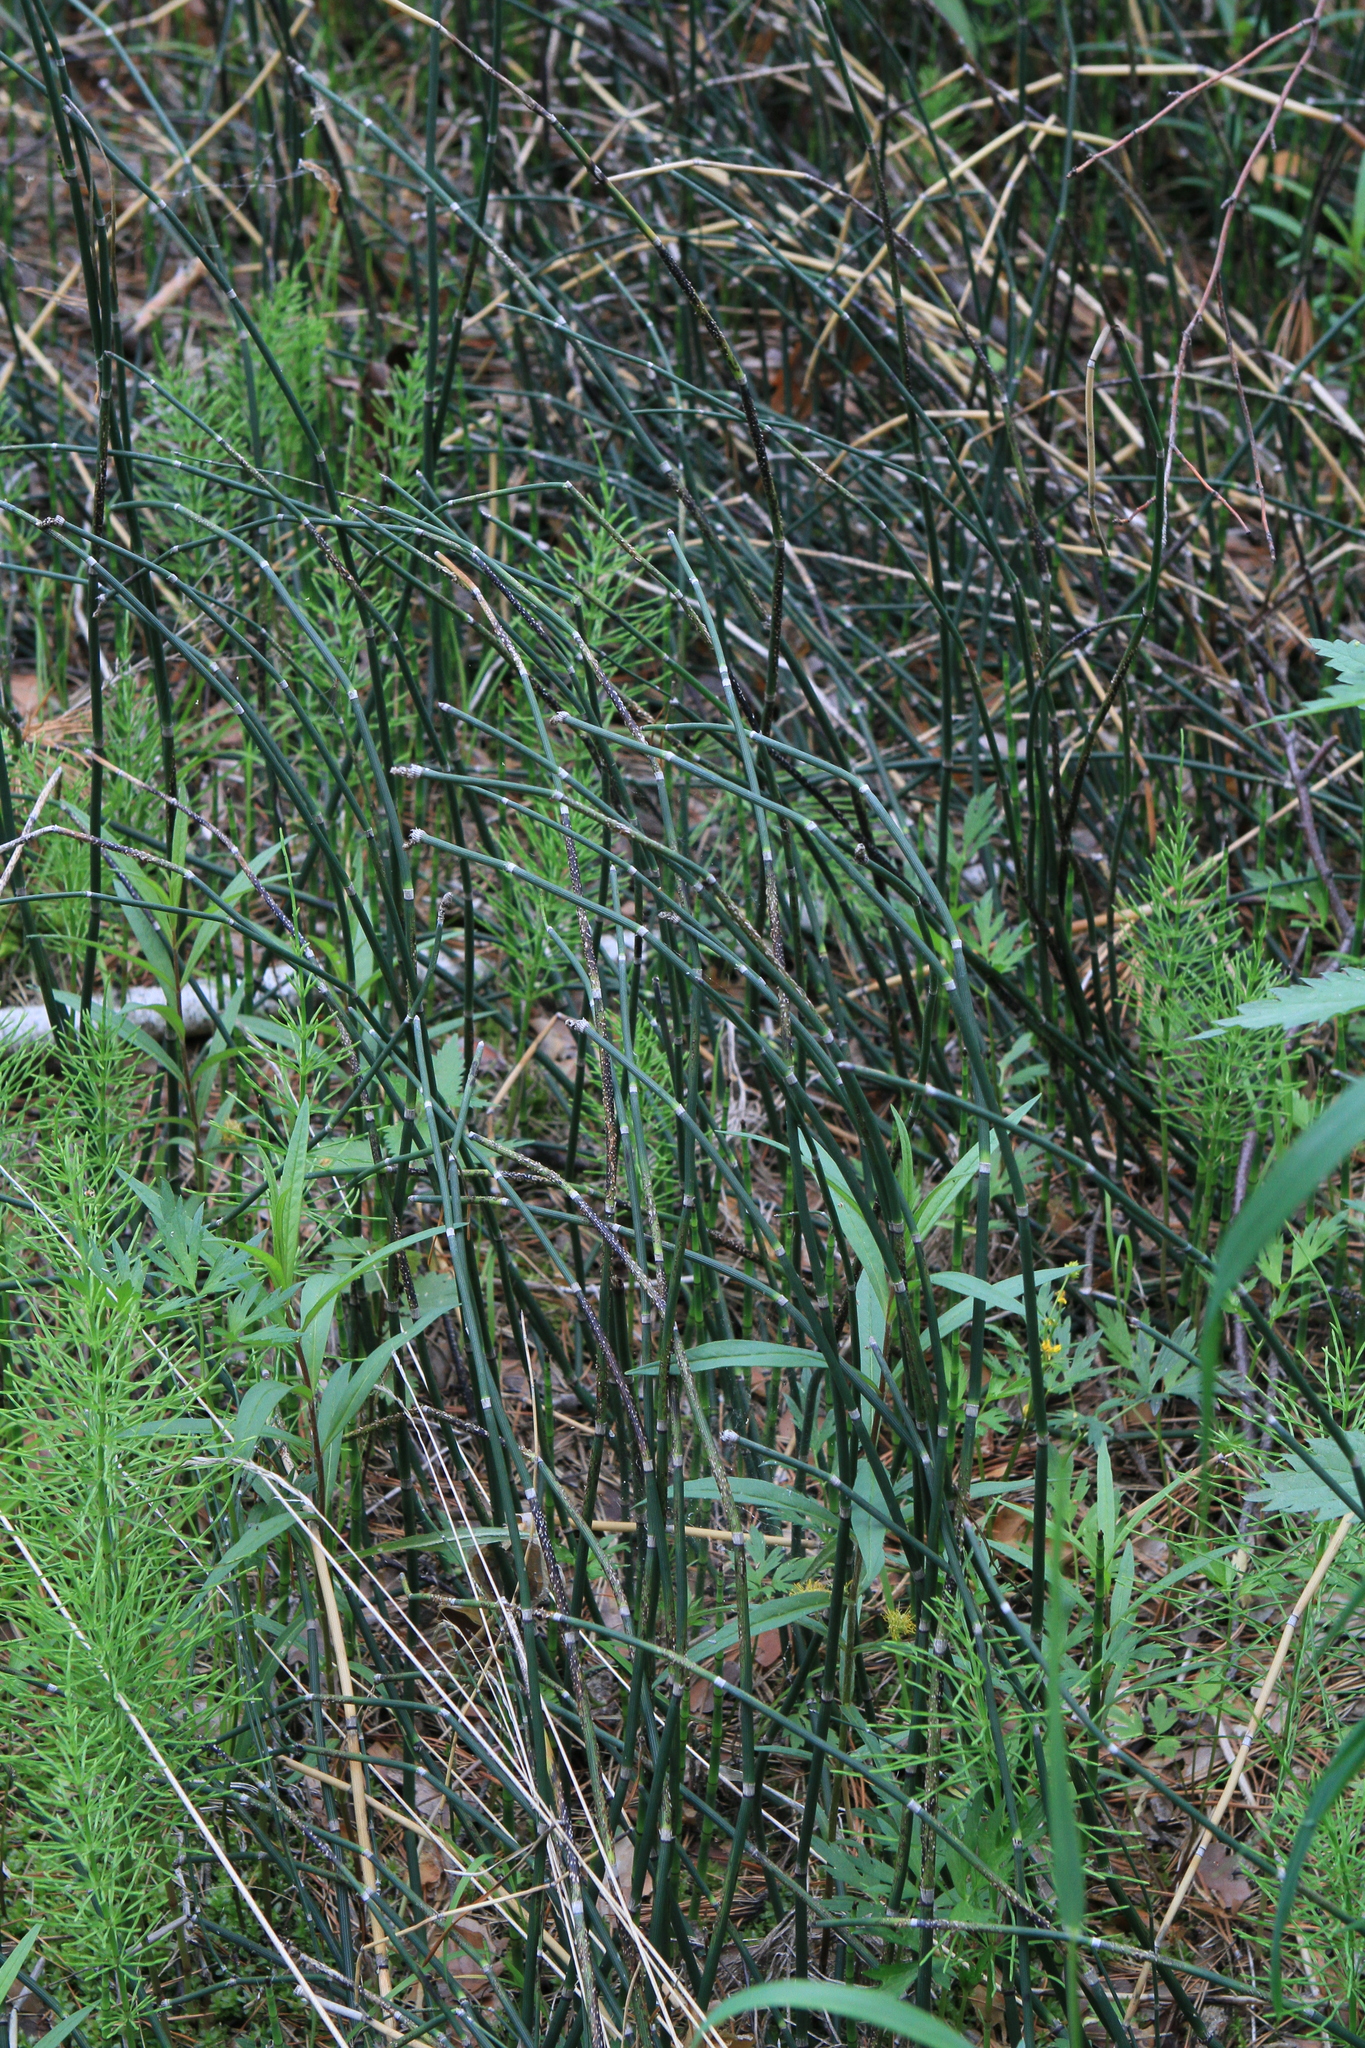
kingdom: Plantae
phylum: Tracheophyta
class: Polypodiopsida
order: Equisetales
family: Equisetaceae
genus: Equisetum
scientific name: Equisetum hyemale
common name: Rough horsetail
